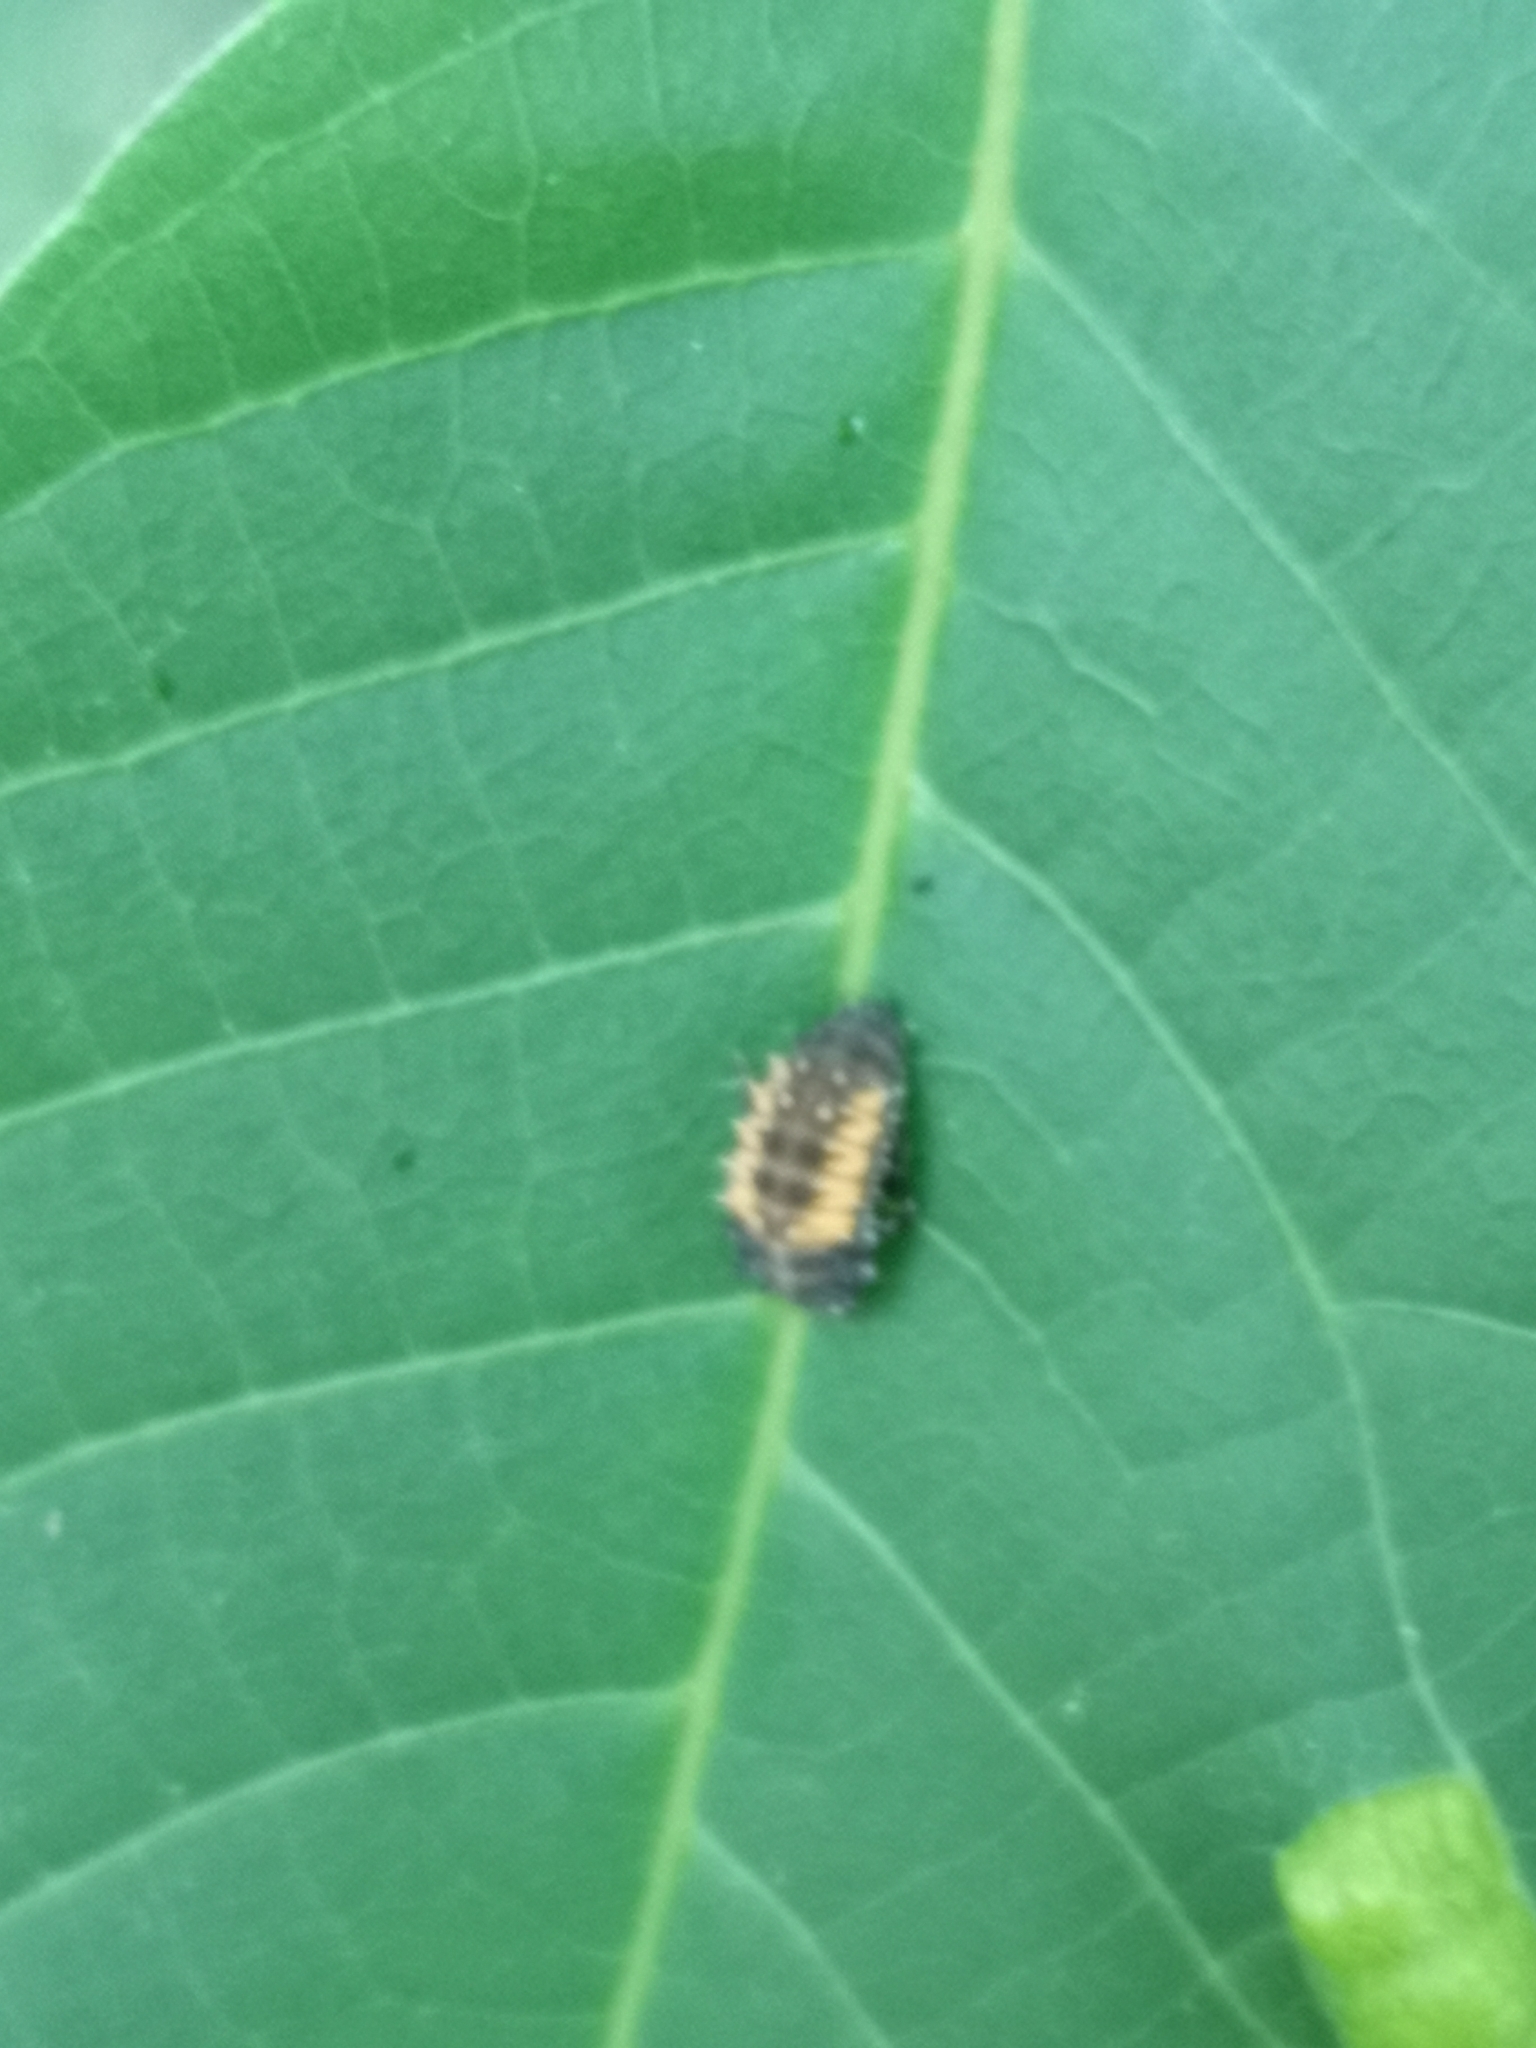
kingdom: Animalia
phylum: Arthropoda
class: Insecta
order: Coleoptera
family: Coccinellidae
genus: Harmonia
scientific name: Harmonia axyridis
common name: Harlequin ladybird
